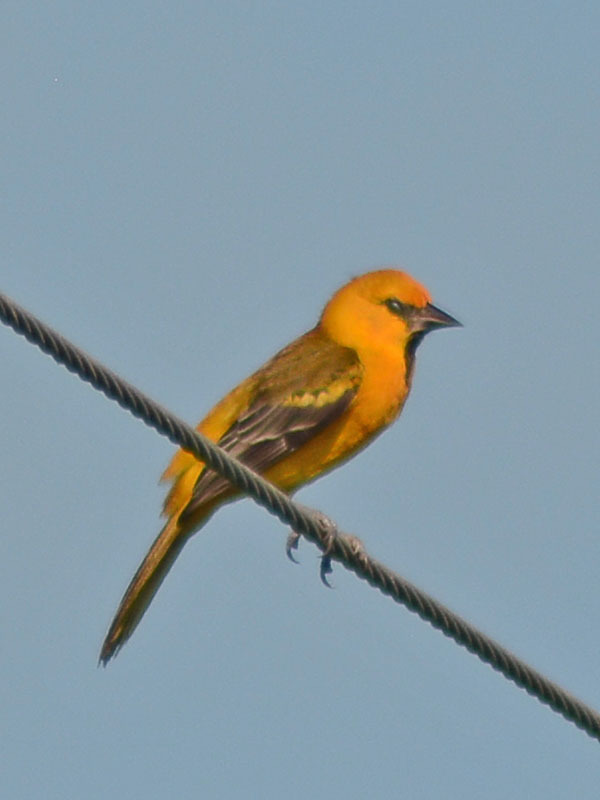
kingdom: Animalia
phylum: Chordata
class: Aves
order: Passeriformes
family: Icteridae
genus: Icterus
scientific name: Icterus gularis
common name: Altamira oriole
